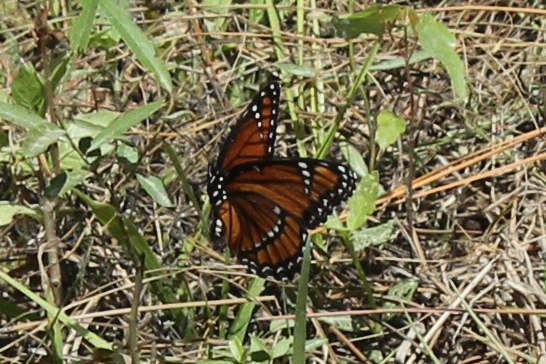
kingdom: Animalia
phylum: Arthropoda
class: Insecta
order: Lepidoptera
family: Nymphalidae
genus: Limenitis
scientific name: Limenitis archippus
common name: Viceroy
